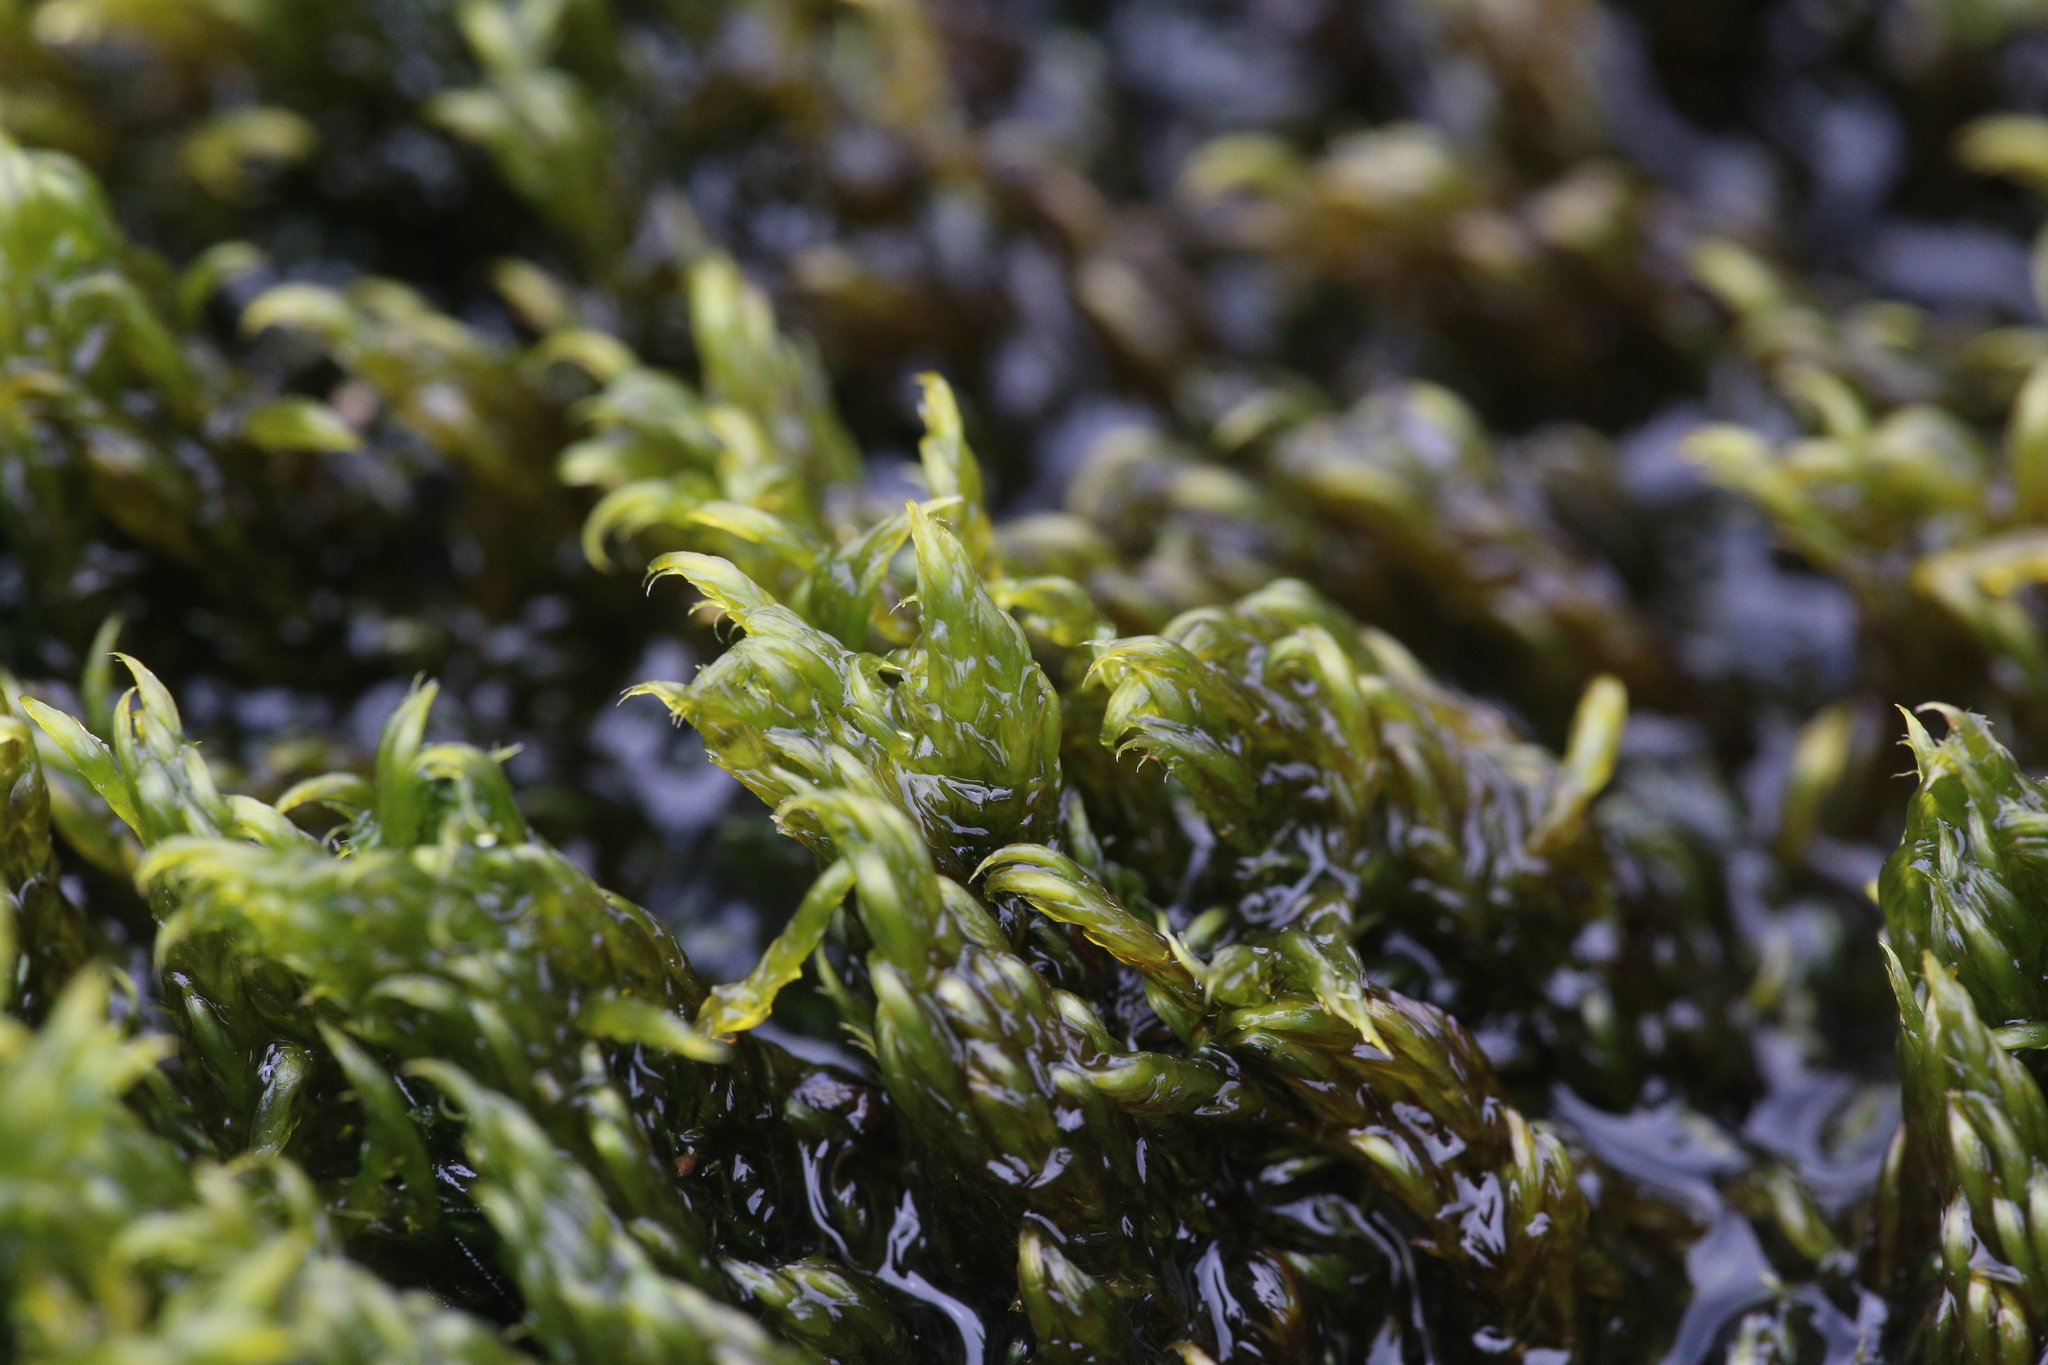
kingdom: Plantae
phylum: Bryophyta
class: Bryopsida
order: Hypnales
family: Calliergonaceae
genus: Warnstorfia
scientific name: Warnstorfia fluitans
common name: Floating hook moss
